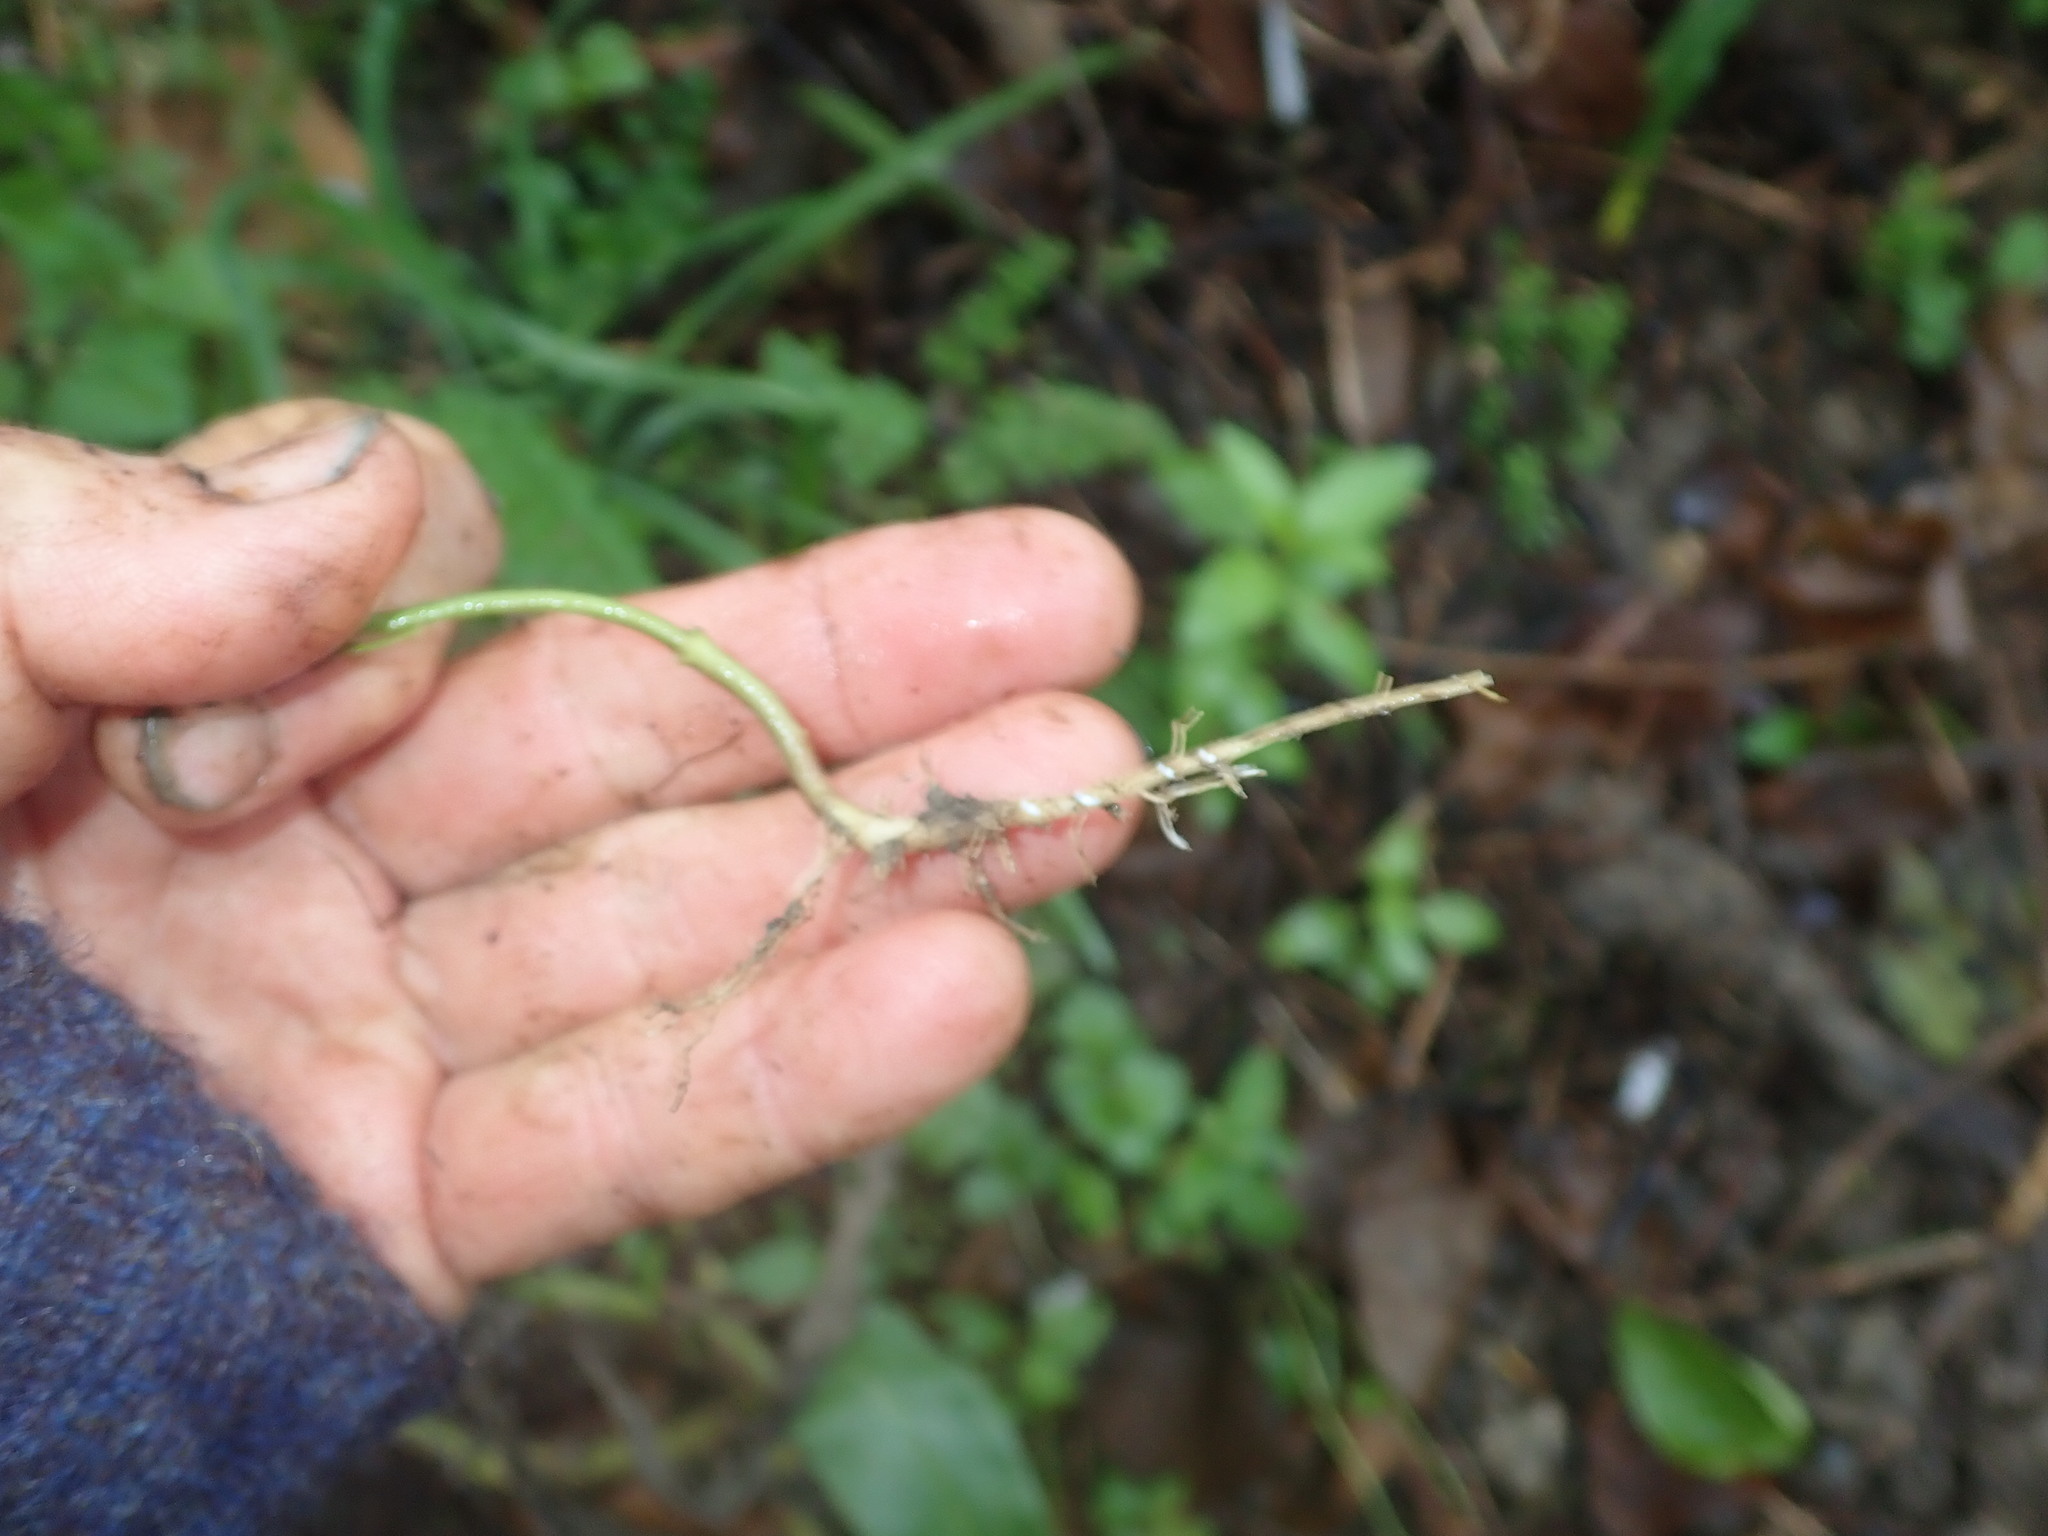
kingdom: Plantae
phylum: Tracheophyta
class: Magnoliopsida
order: Gentianales
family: Apocynaceae
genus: Araujia
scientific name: Araujia sericifera
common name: White bladderflower
